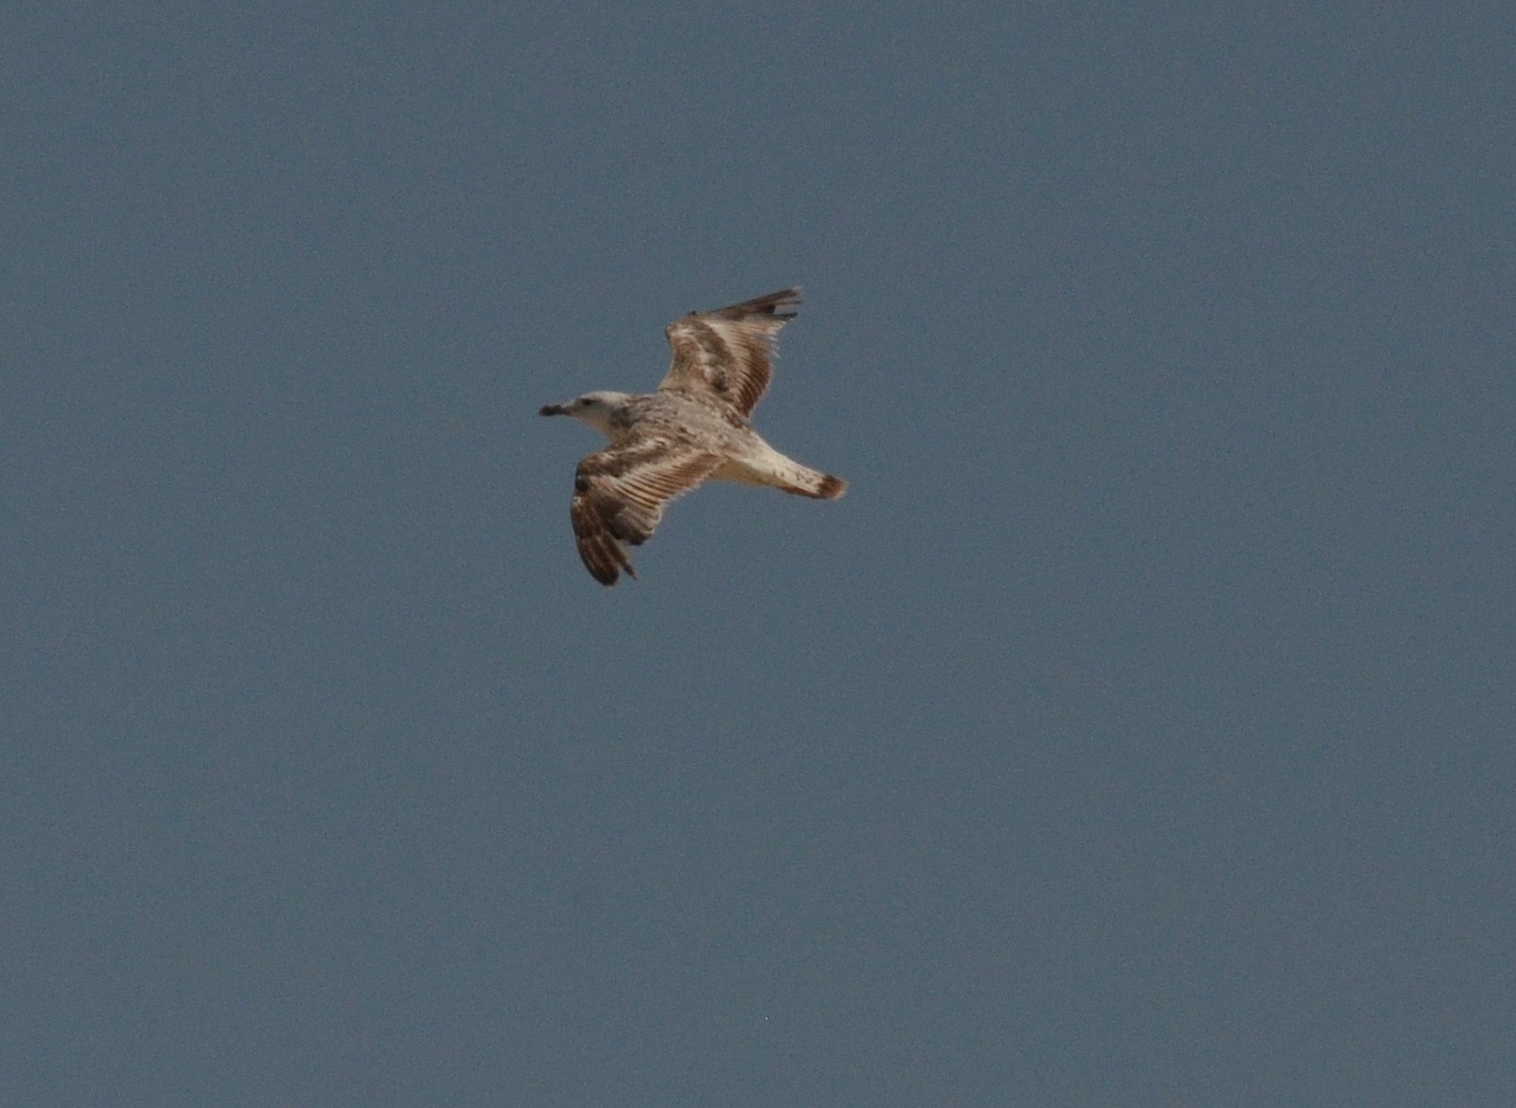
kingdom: Animalia
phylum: Chordata
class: Aves
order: Charadriiformes
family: Laridae
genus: Larus
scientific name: Larus michahellis
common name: Yellow-legged gull
